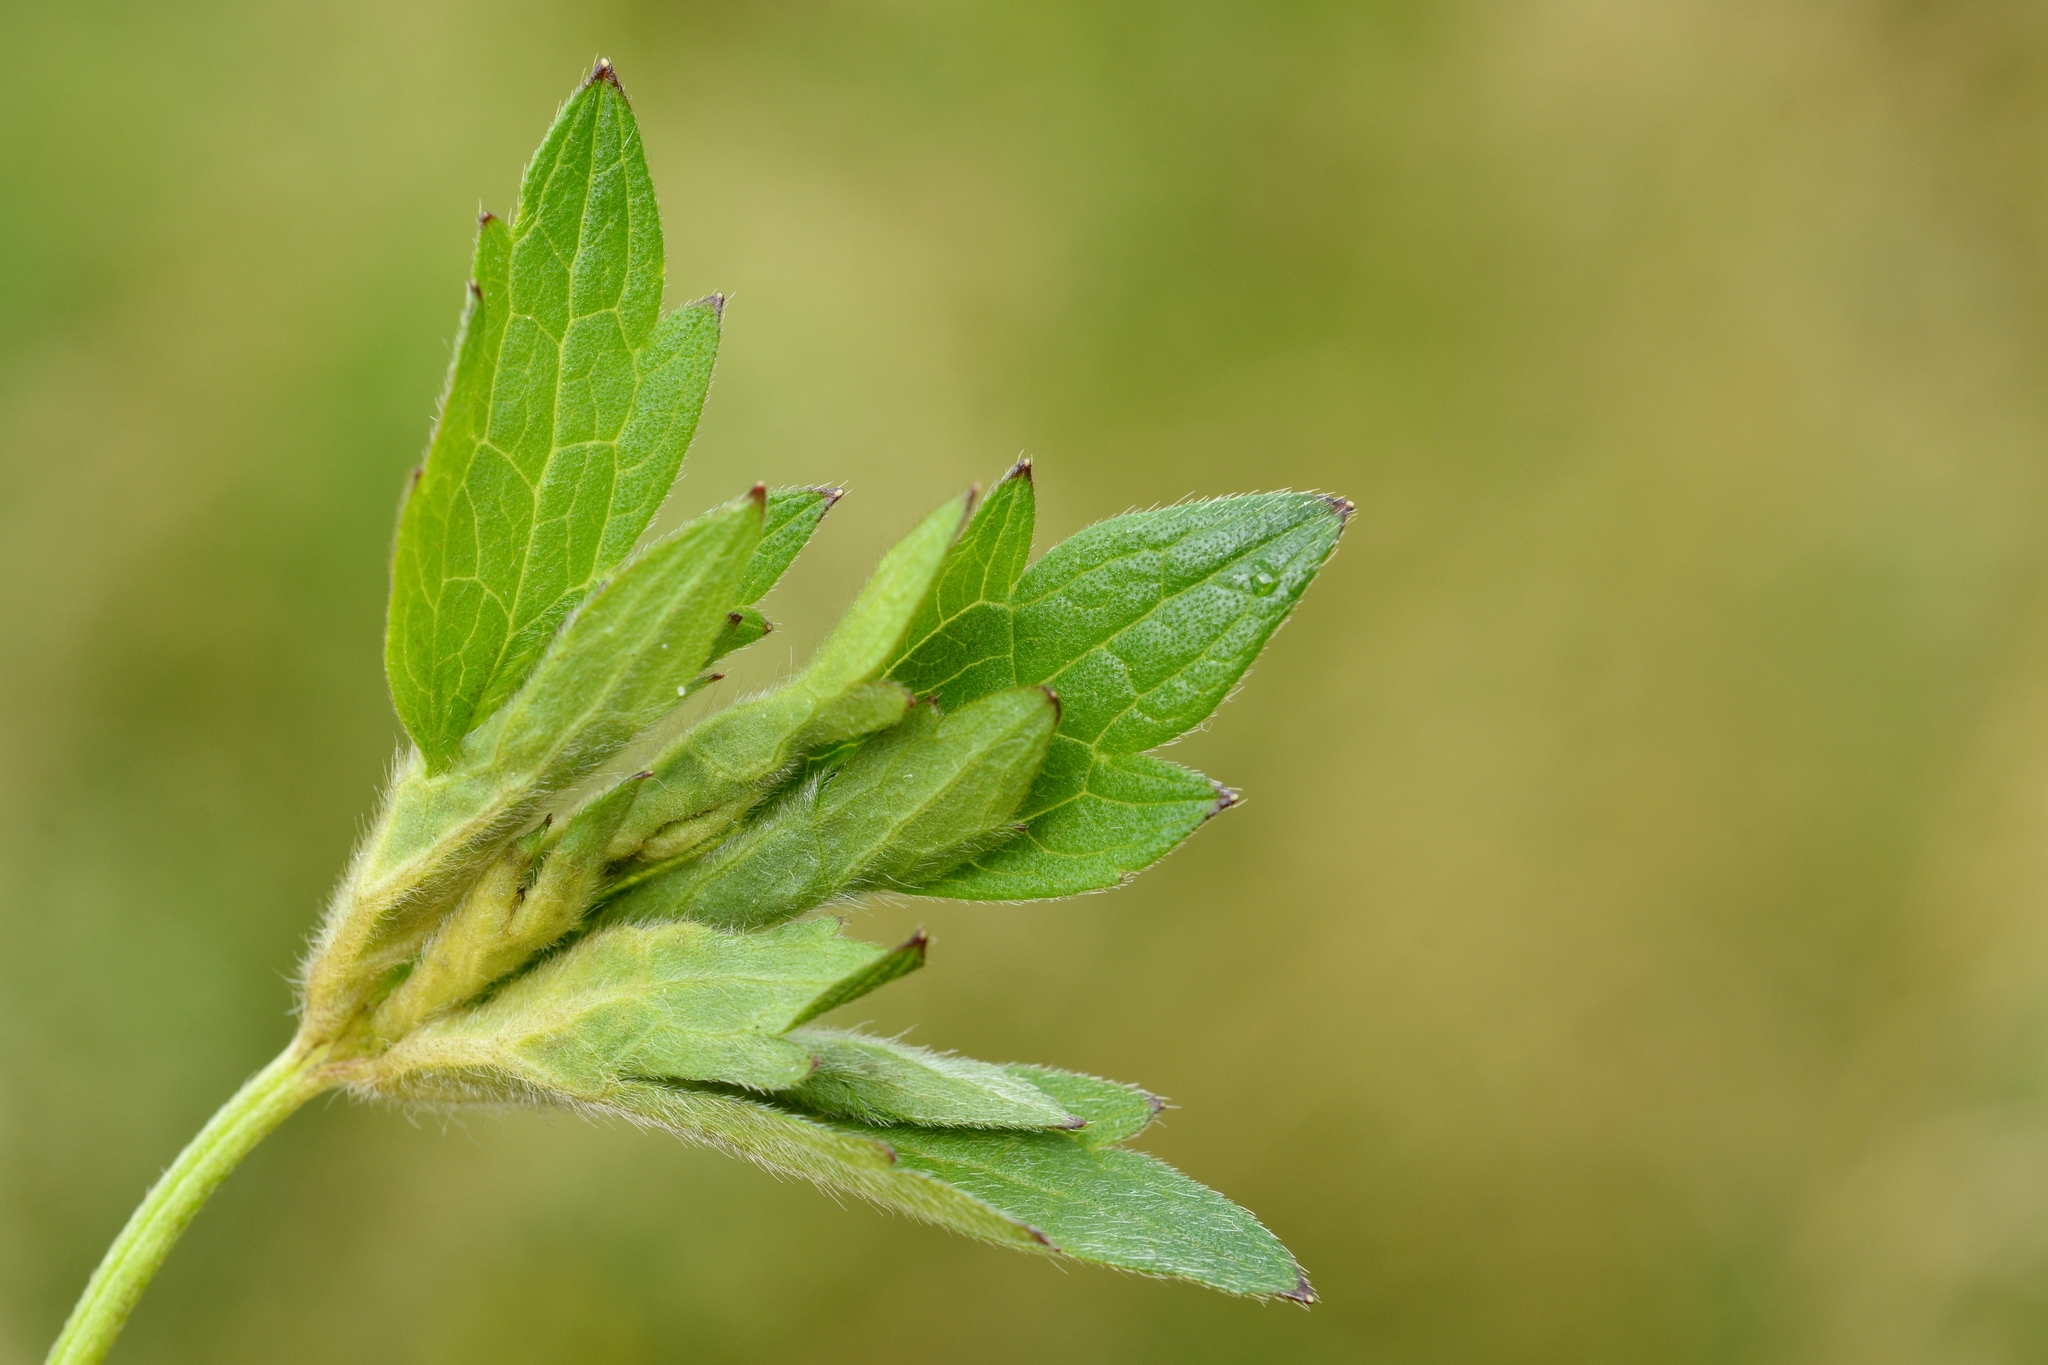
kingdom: Animalia
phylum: Arthropoda
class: Insecta
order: Diptera
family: Cecidomyiidae
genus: Dasineura
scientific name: Dasineura ranunculi
